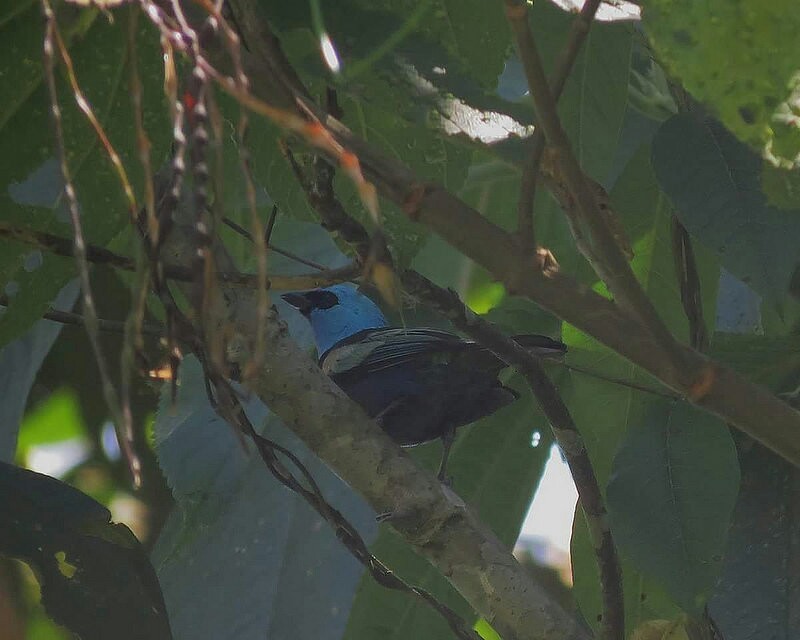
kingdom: Animalia
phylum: Chordata
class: Aves
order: Passeriformes
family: Thraupidae
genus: Stilpnia
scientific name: Stilpnia cyanicollis
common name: Blue-necked tanager
